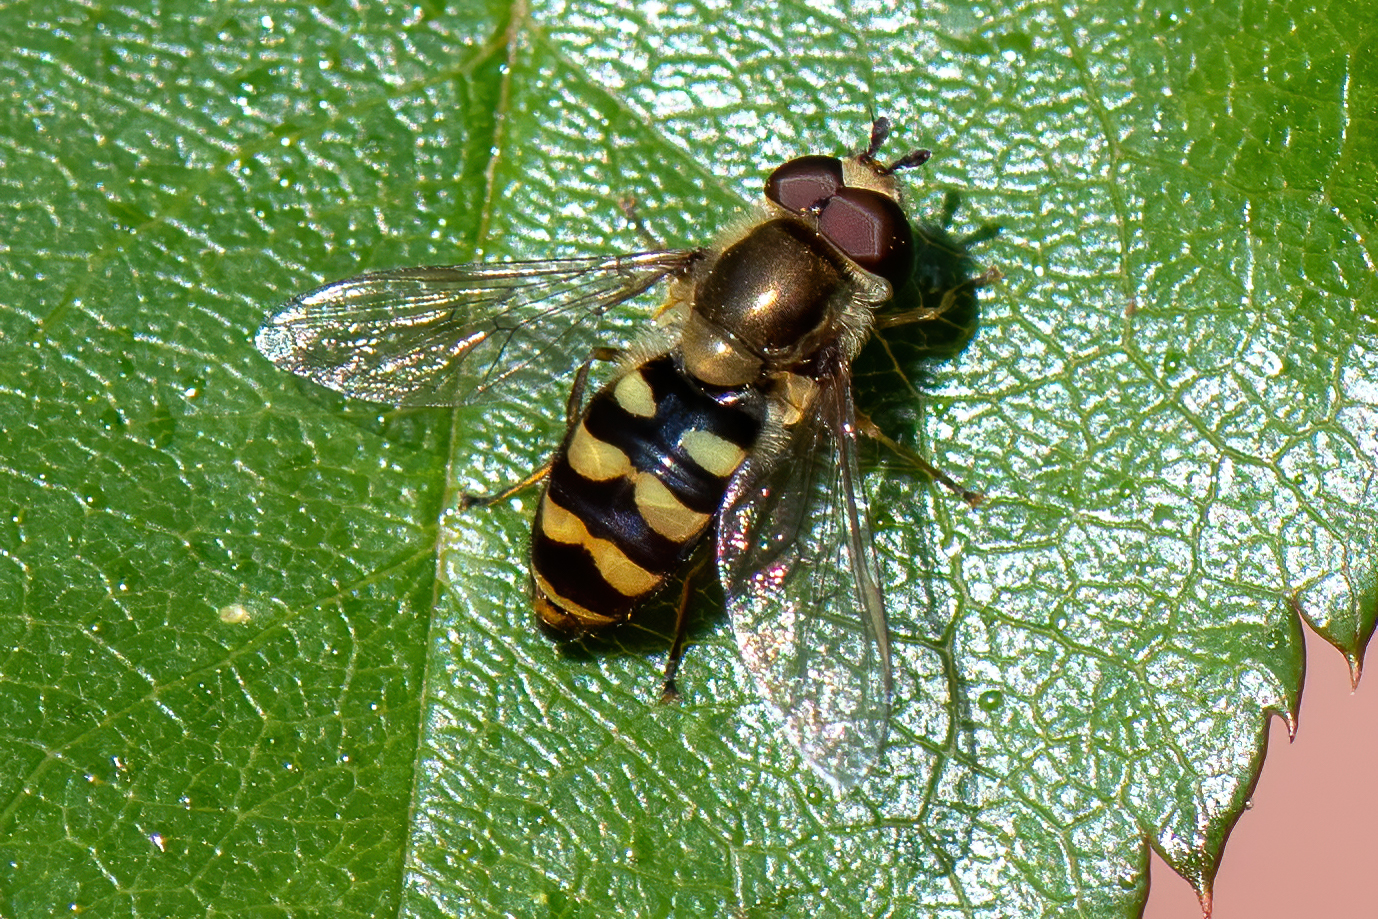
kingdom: Animalia
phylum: Arthropoda
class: Insecta
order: Diptera
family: Syrphidae
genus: Eupeodes
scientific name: Eupeodes fumipennis
